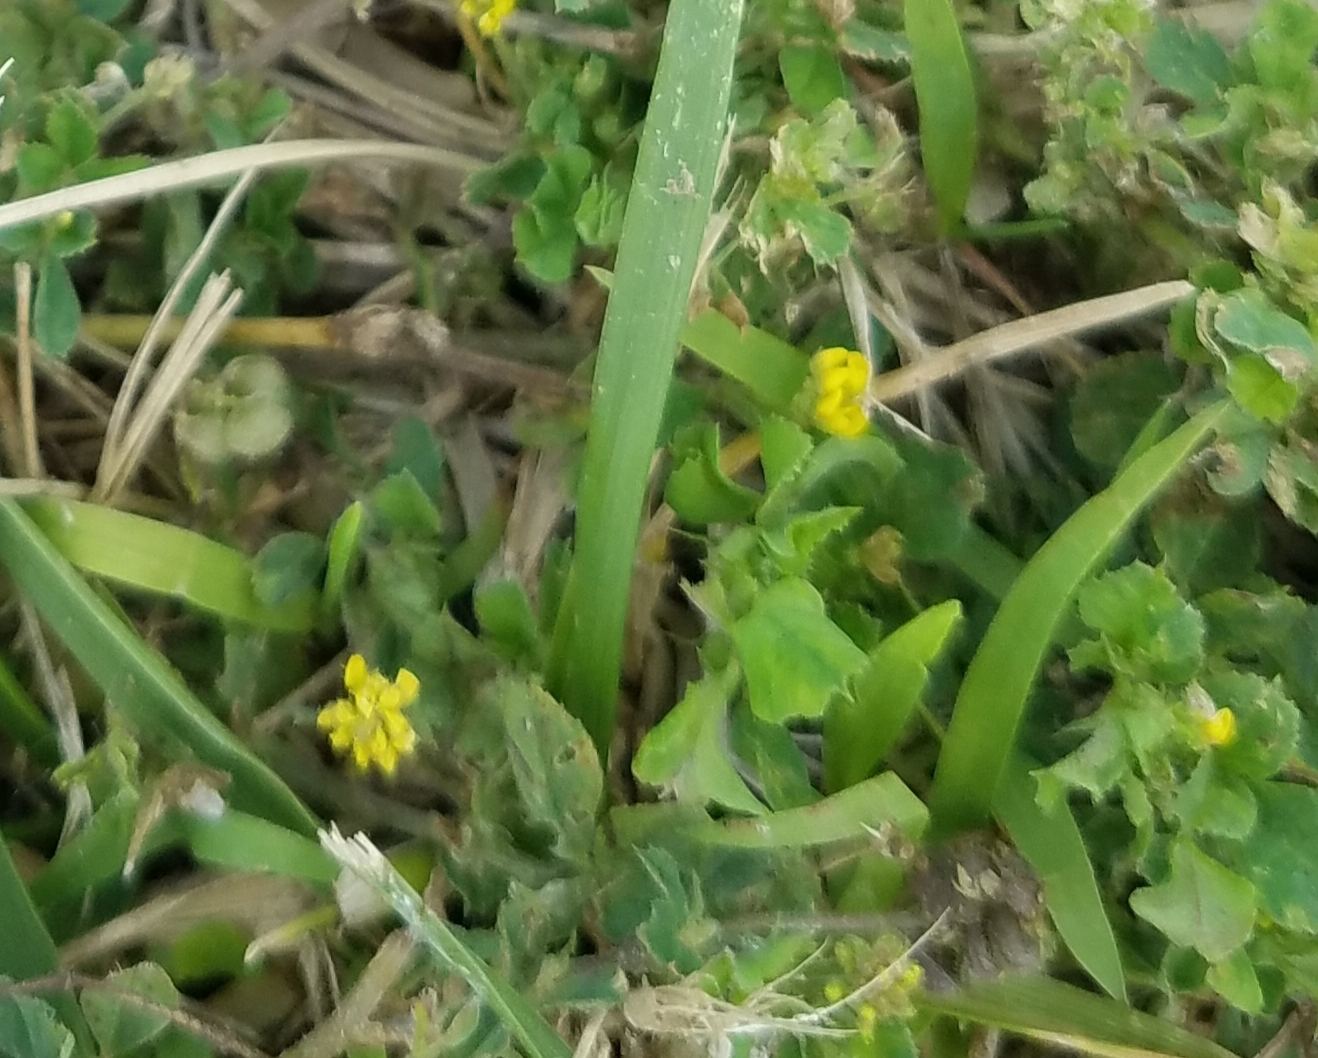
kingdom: Plantae
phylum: Tracheophyta
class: Magnoliopsida
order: Fabales
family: Fabaceae
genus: Medicago
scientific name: Medicago lupulina
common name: Black medick
